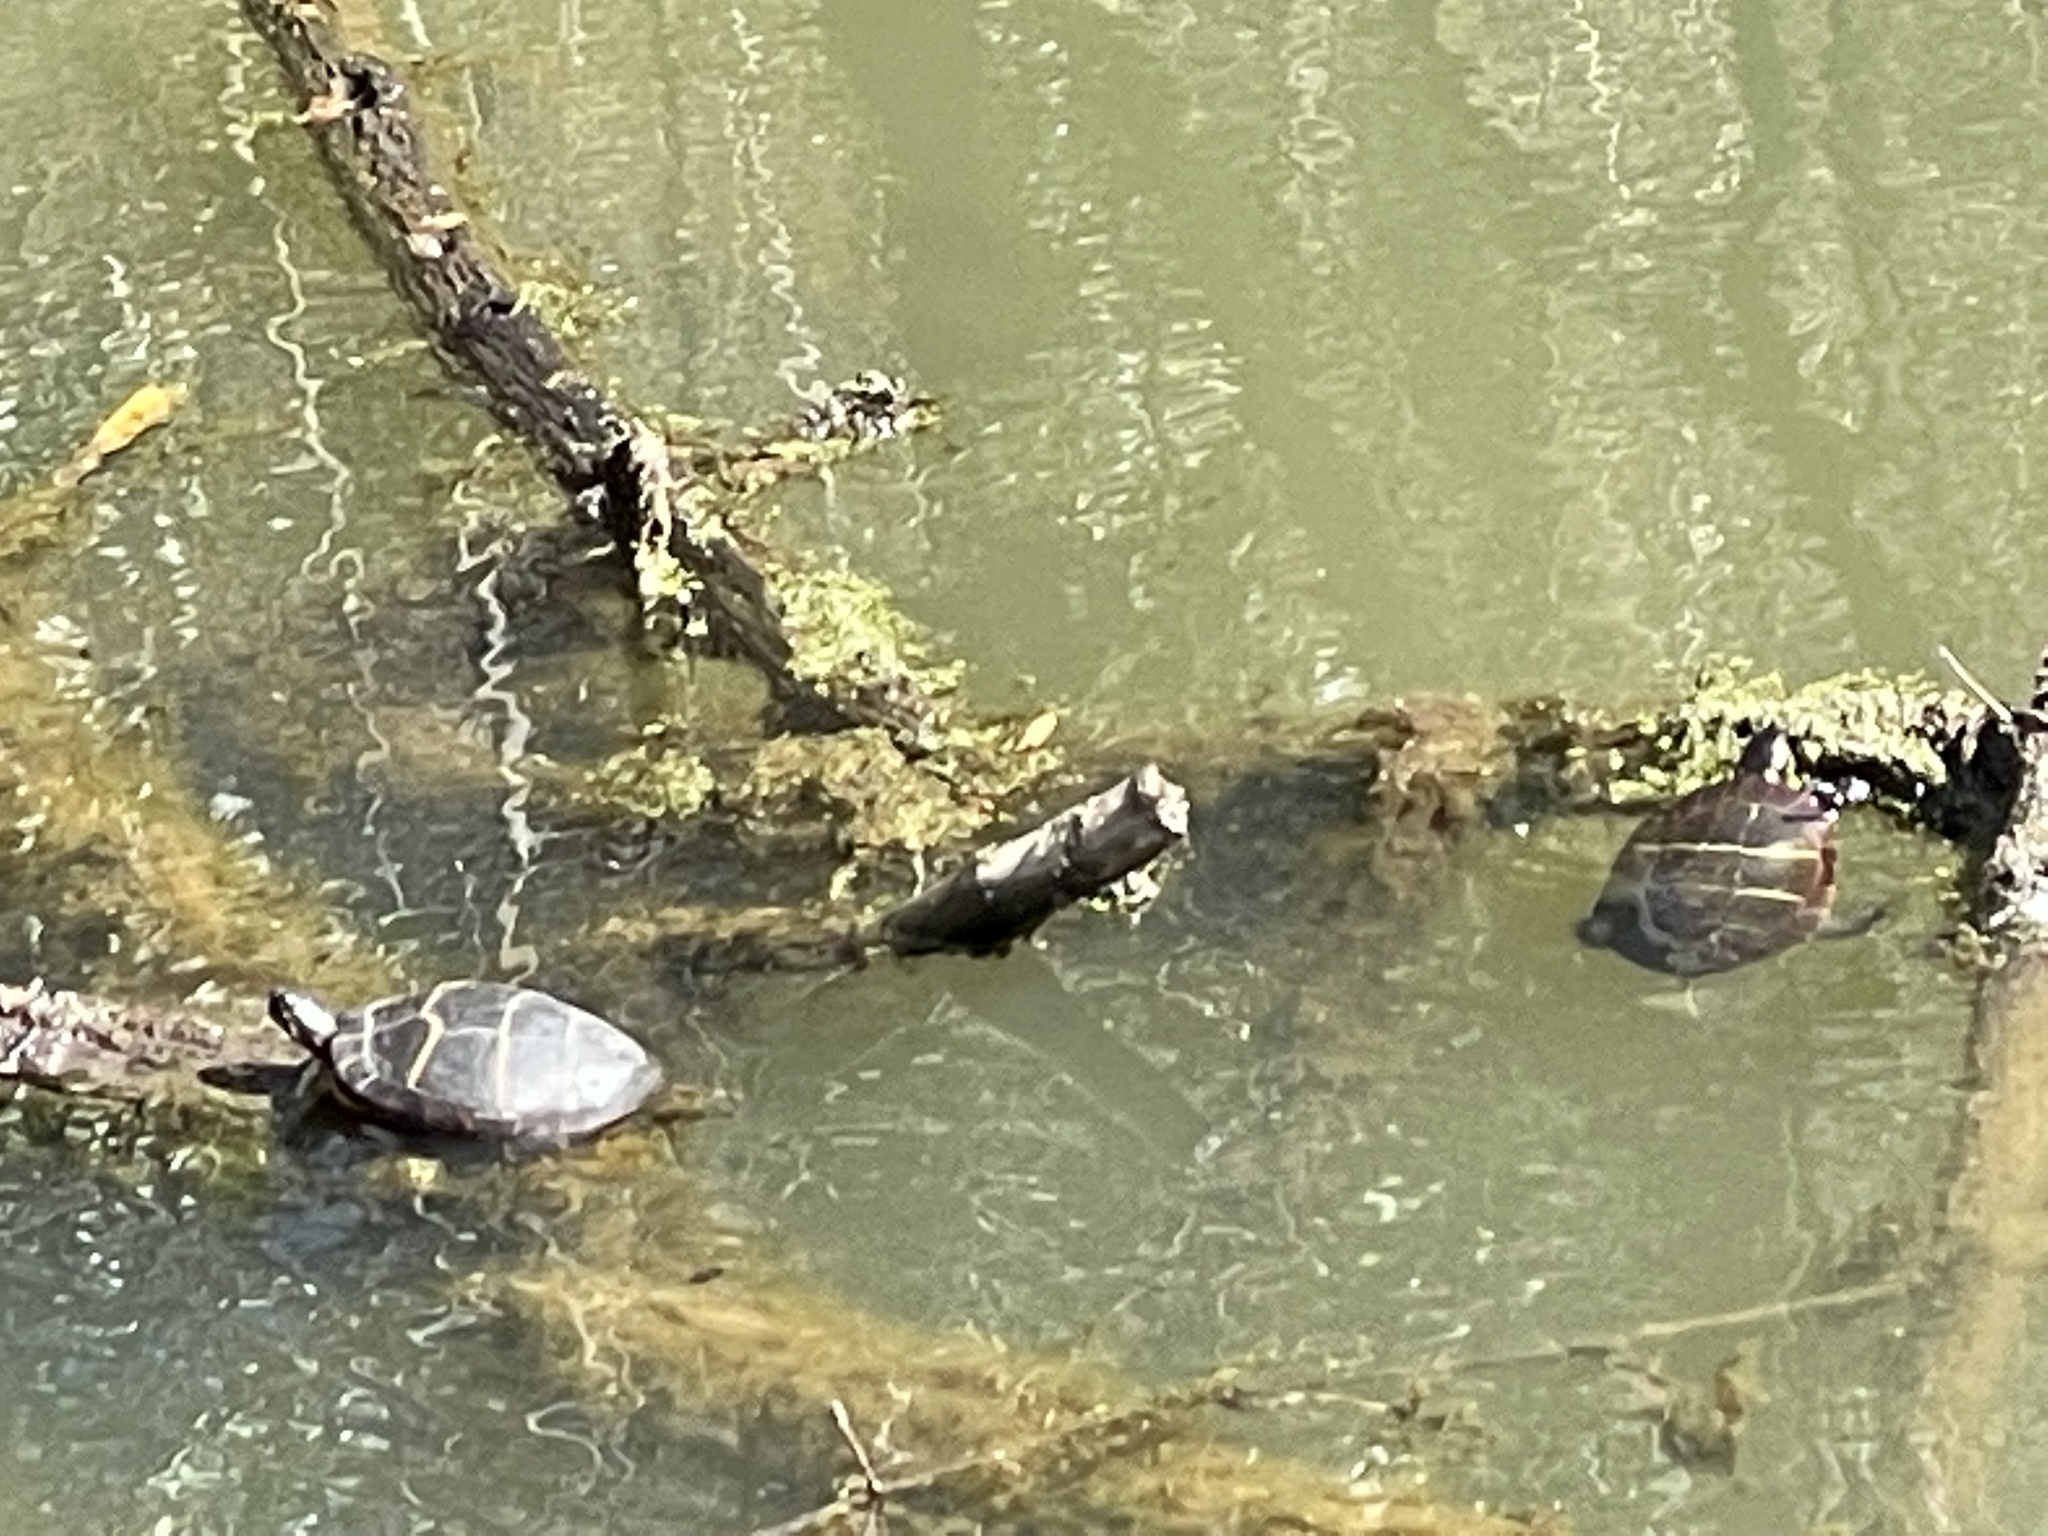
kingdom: Animalia
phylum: Chordata
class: Testudines
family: Emydidae
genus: Chrysemys
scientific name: Chrysemys picta
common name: Painted turtle
